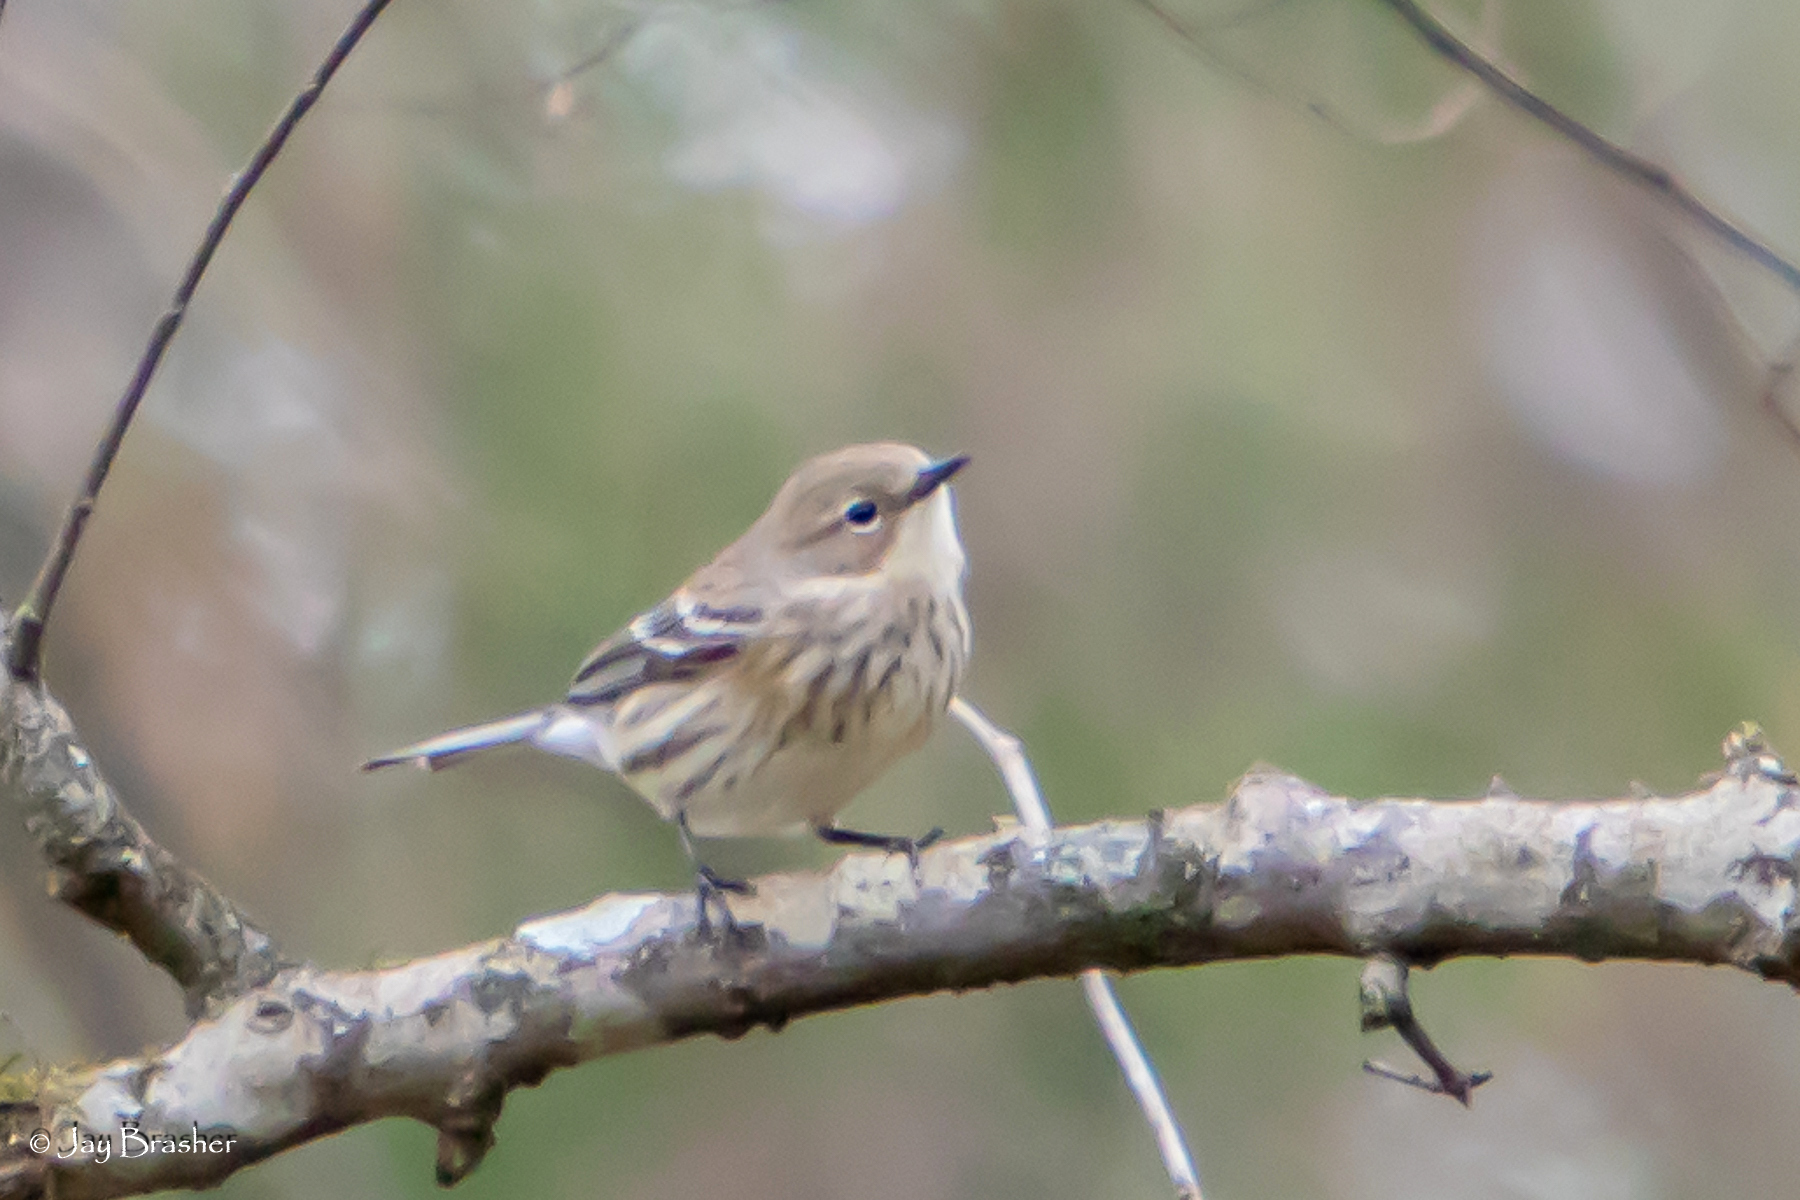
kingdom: Animalia
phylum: Chordata
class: Aves
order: Passeriformes
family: Parulidae
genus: Setophaga
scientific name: Setophaga coronata
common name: Myrtle warbler
